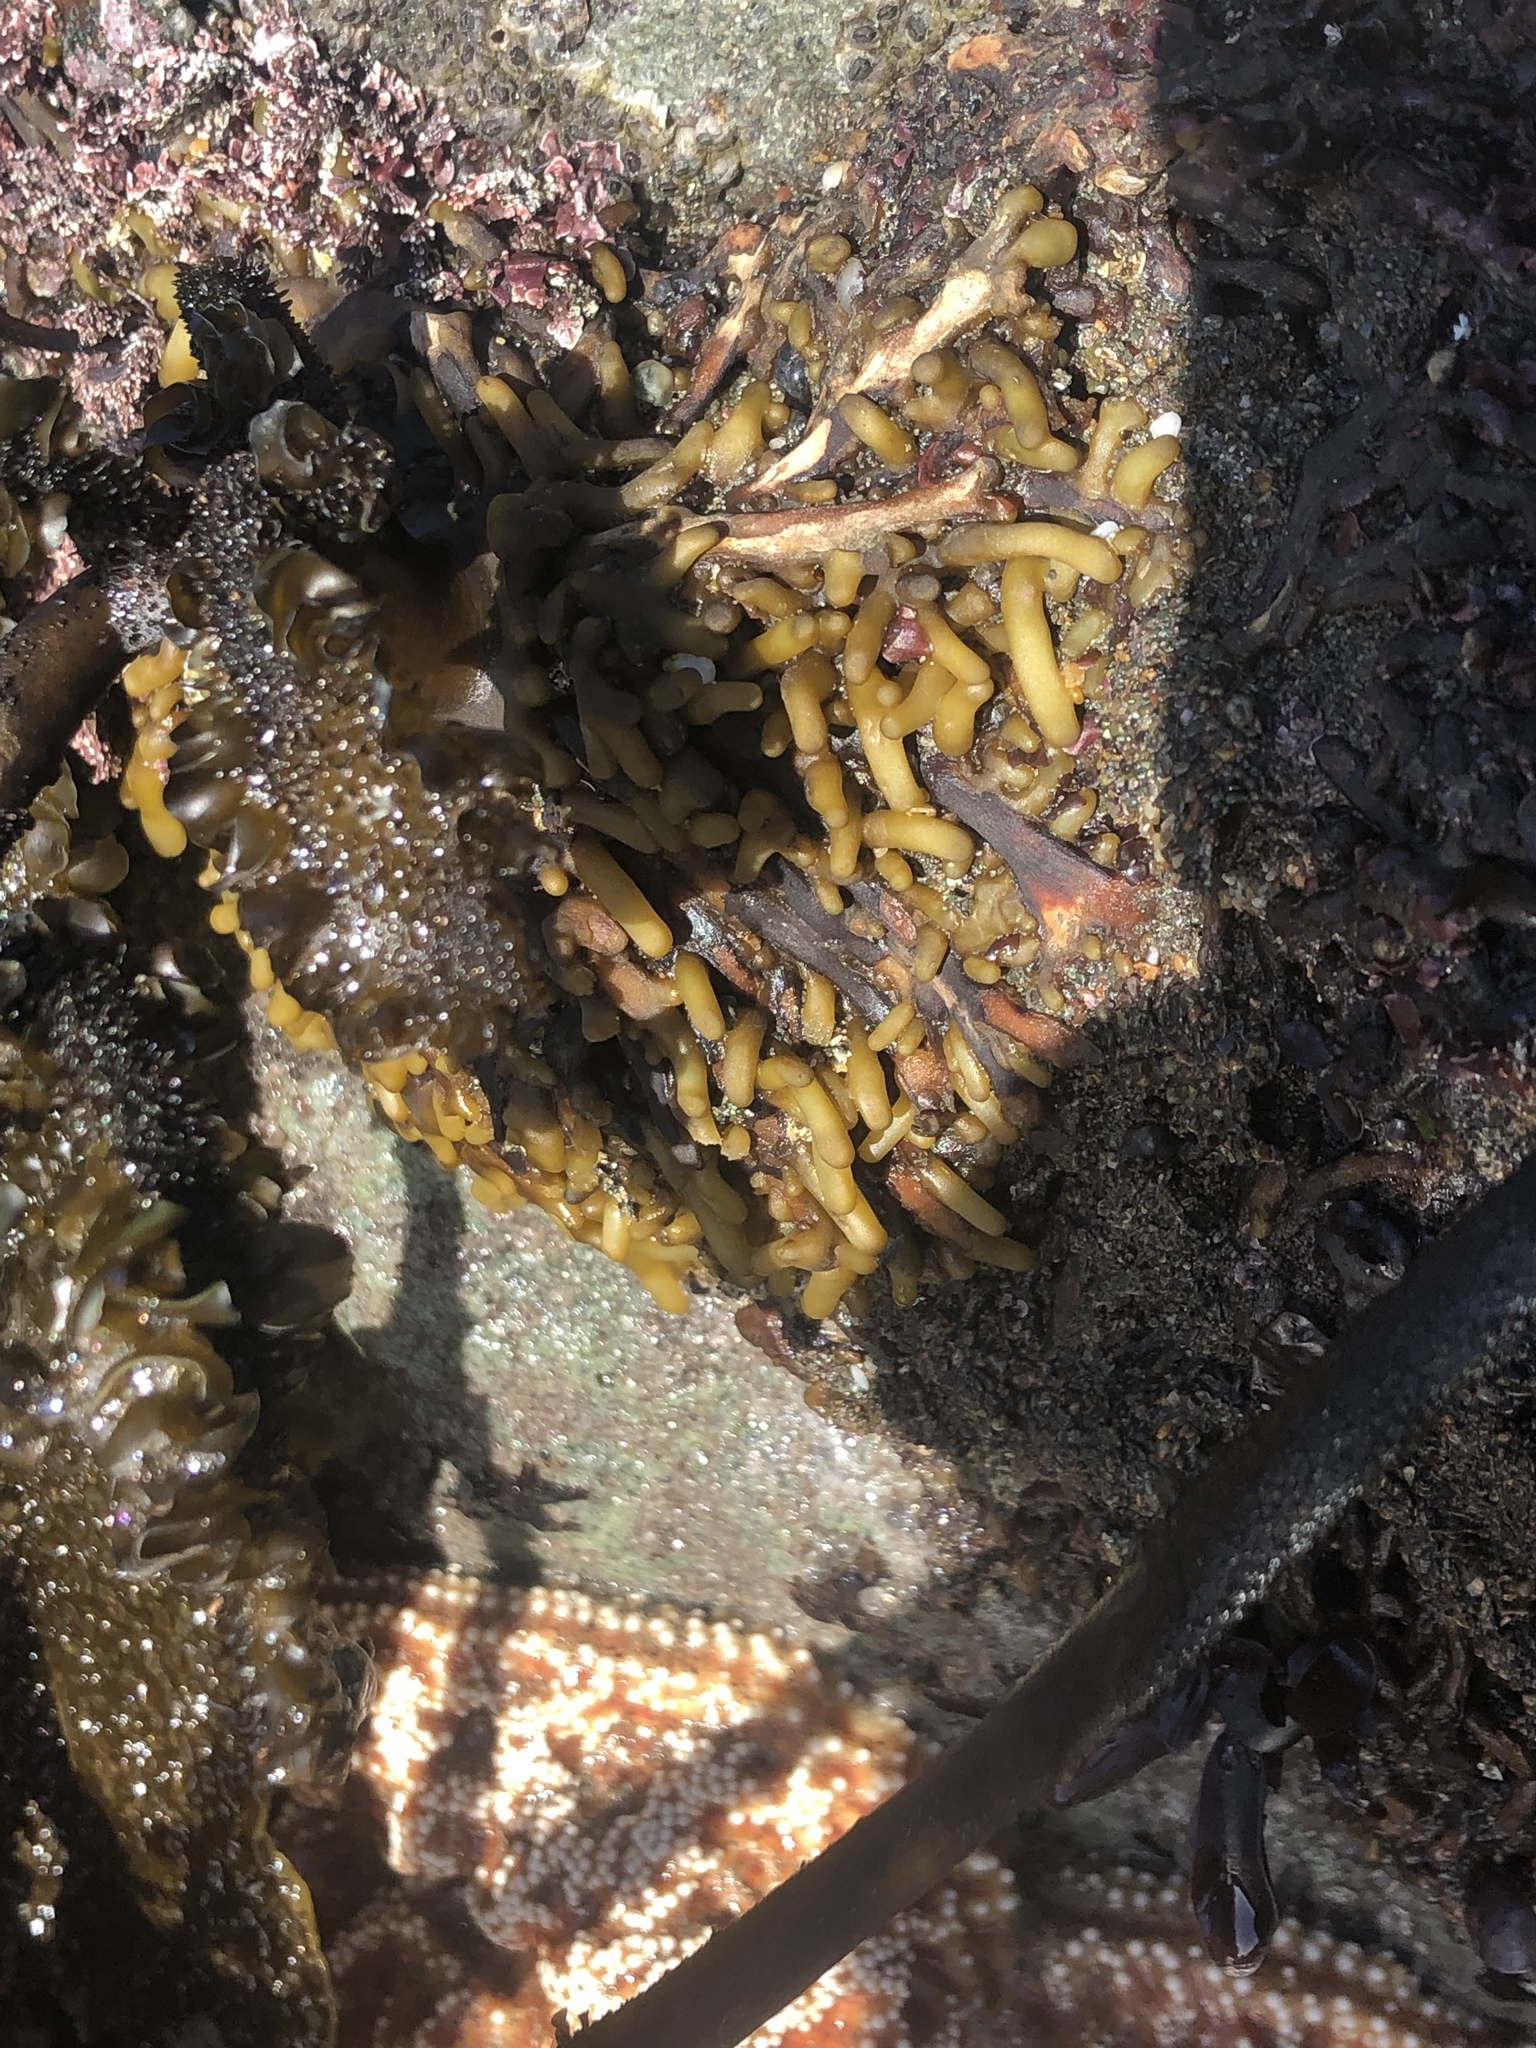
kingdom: Chromista
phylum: Ochrophyta
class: Phaeophyceae
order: Laminariales
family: Lessoniaceae
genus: Egregia
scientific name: Egregia menziesii
